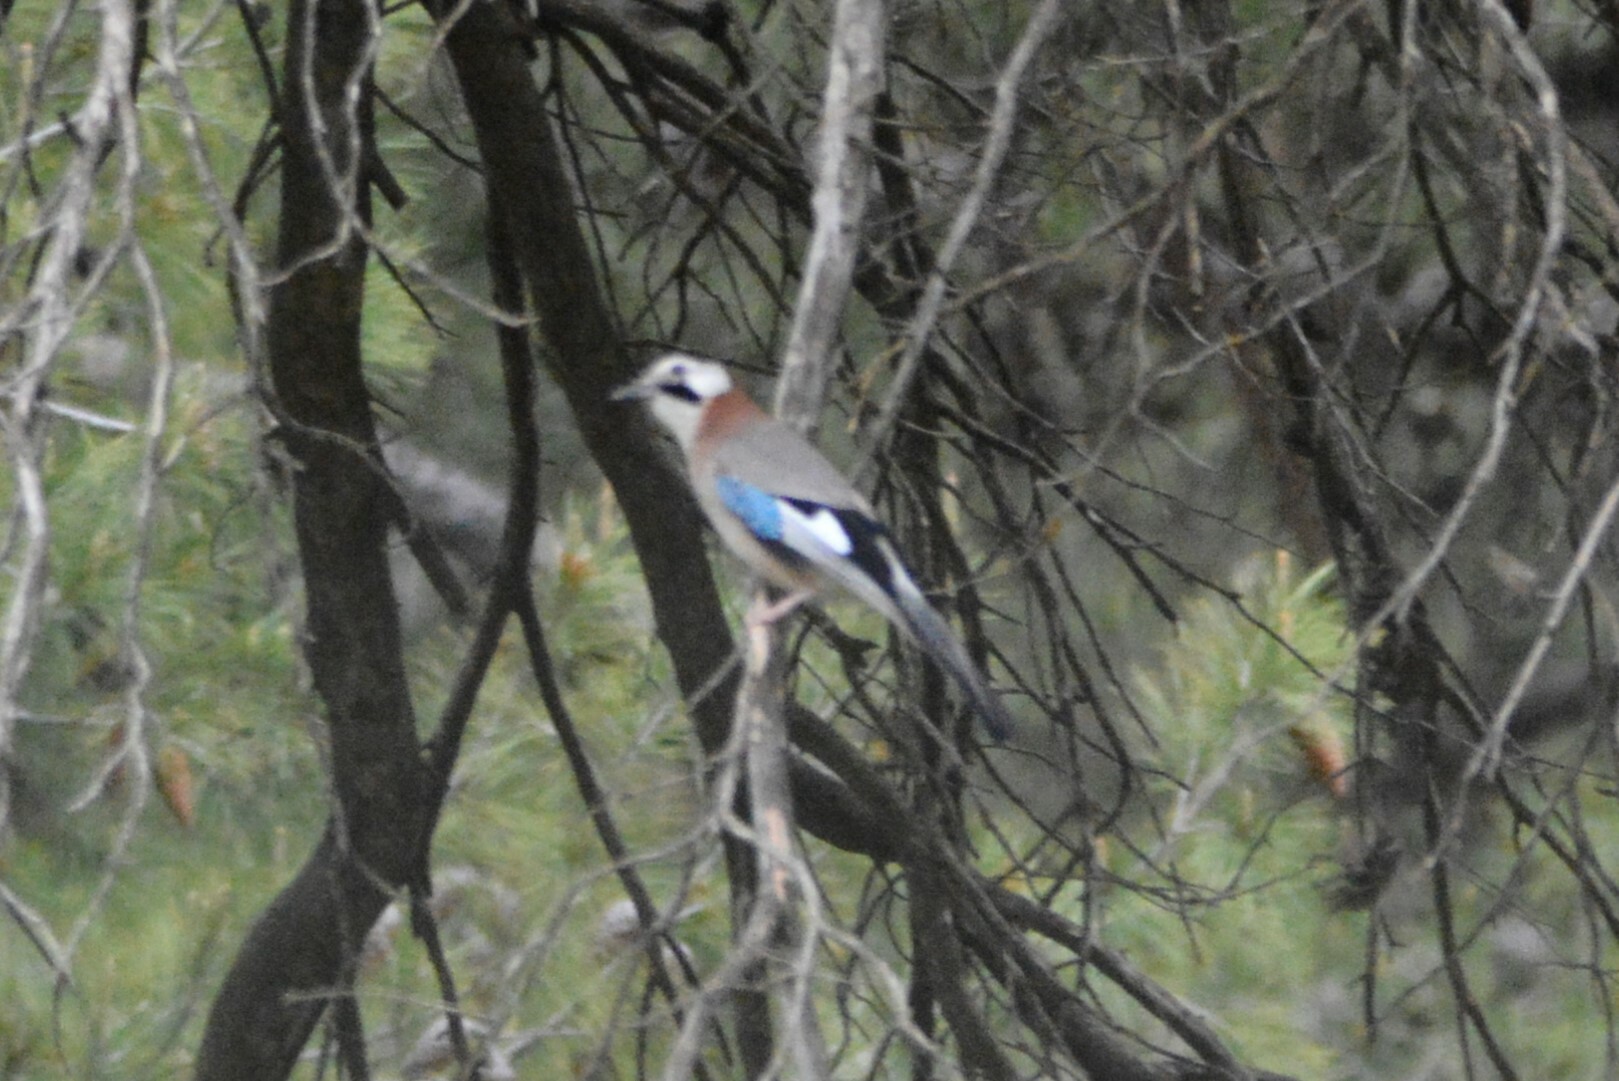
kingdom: Animalia
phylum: Chordata
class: Aves
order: Passeriformes
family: Corvidae
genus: Garrulus
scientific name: Garrulus glandarius
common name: Eurasian jay
